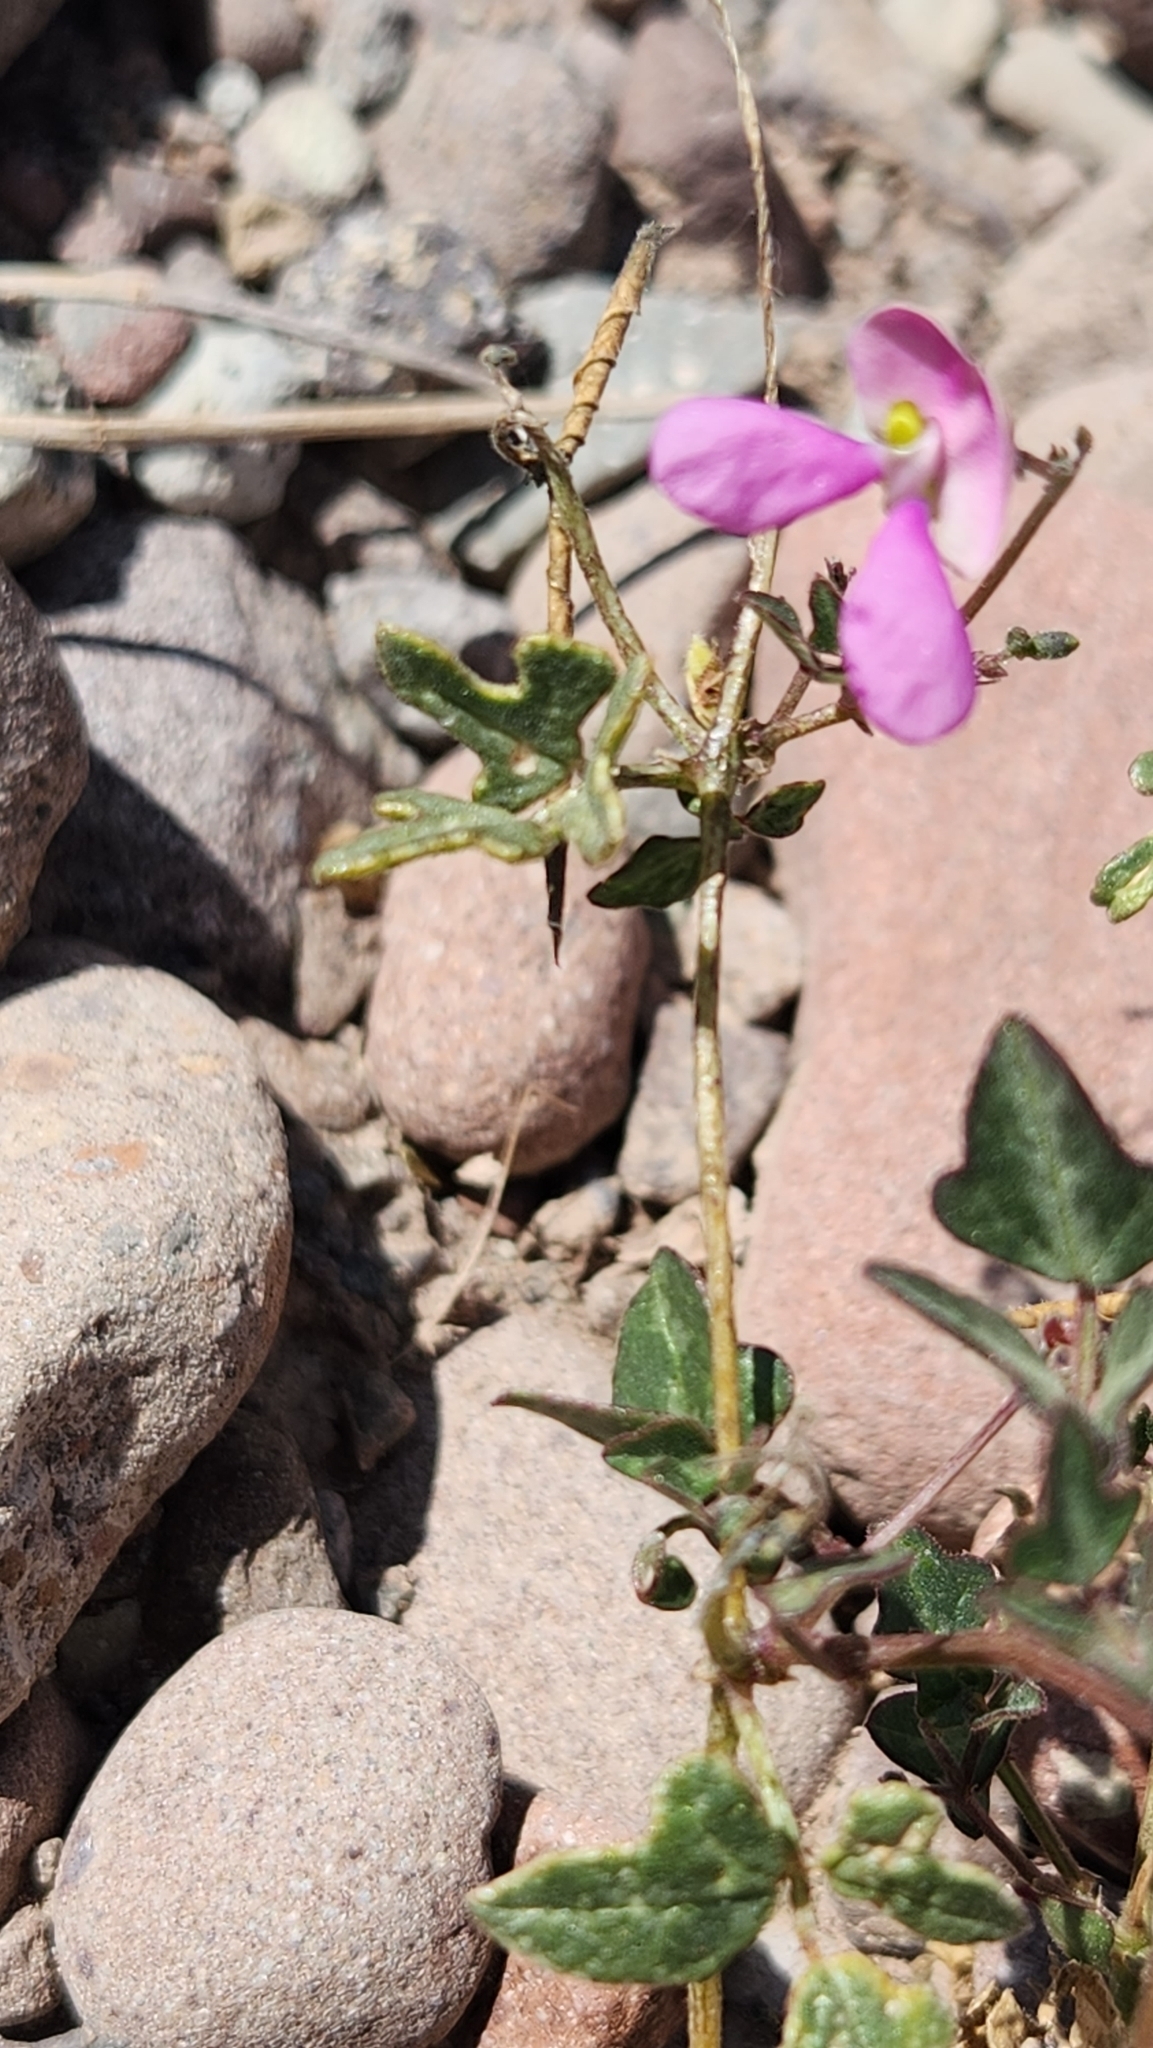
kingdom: Plantae
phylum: Tracheophyta
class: Magnoliopsida
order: Fabales
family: Fabaceae
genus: Phaseolus
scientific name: Phaseolus filiformis
